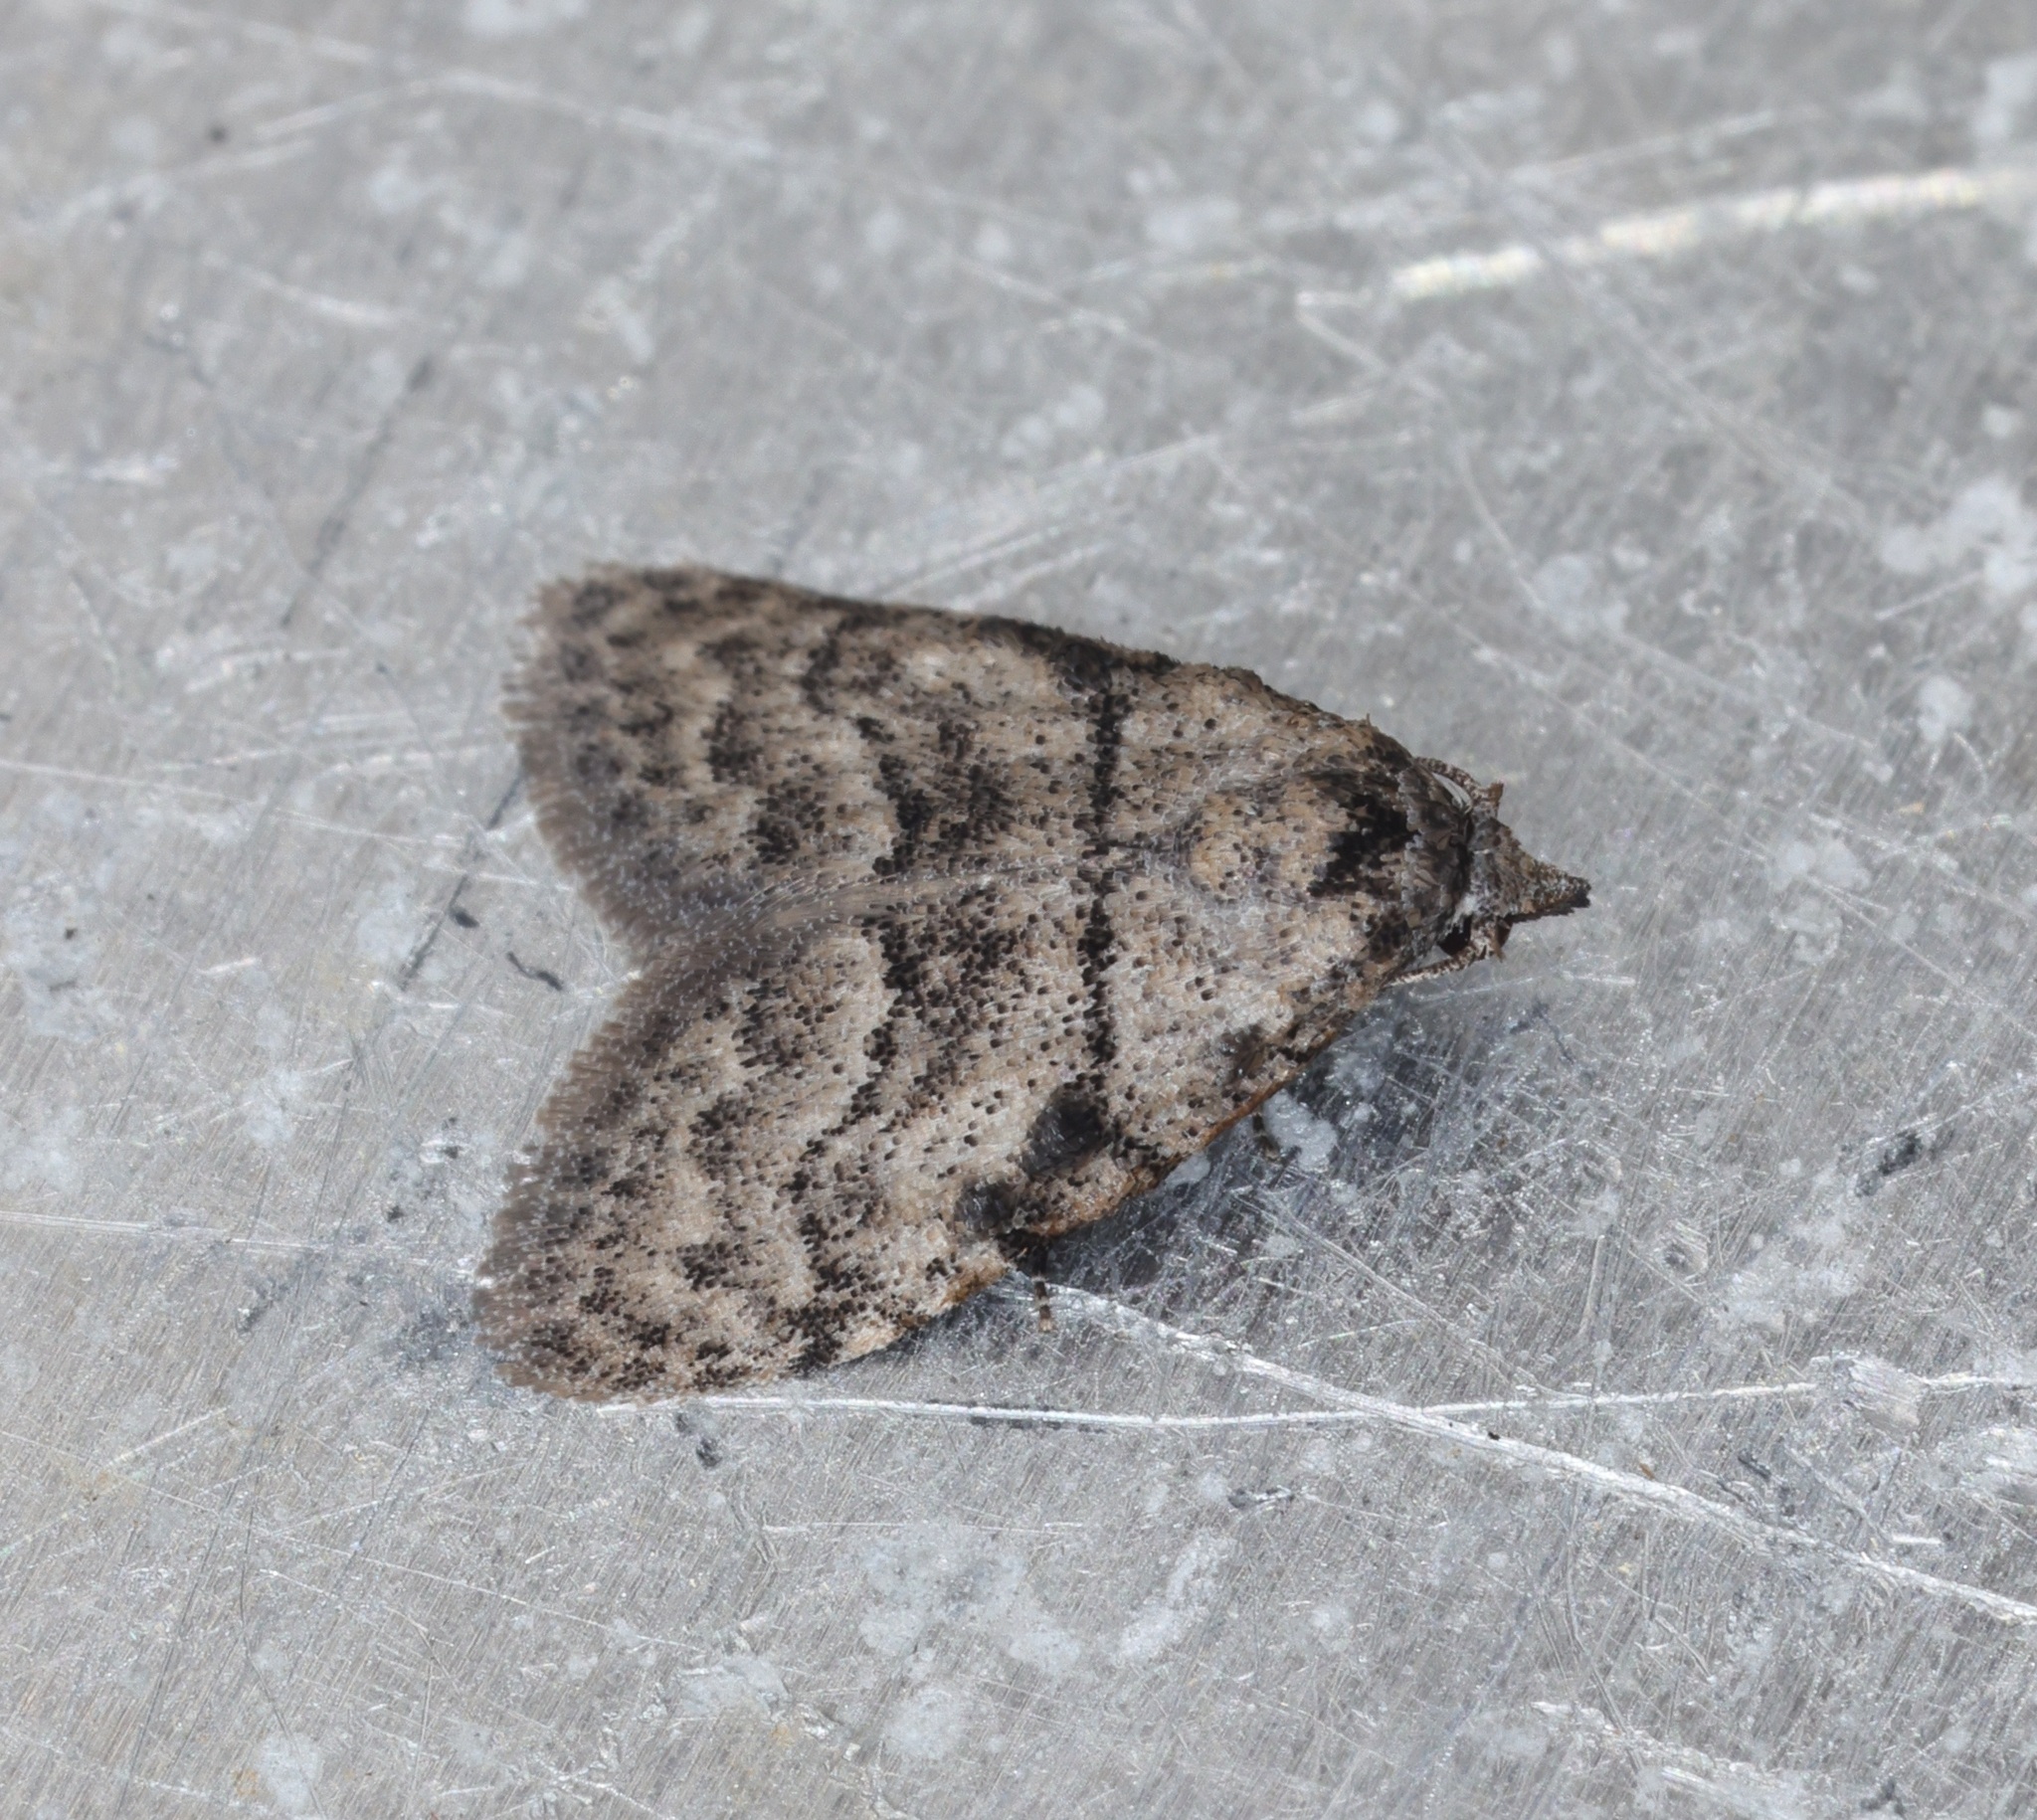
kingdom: Animalia
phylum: Arthropoda
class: Insecta
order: Lepidoptera
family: Nolidae
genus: Inouenola
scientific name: Inouenola pallescens
